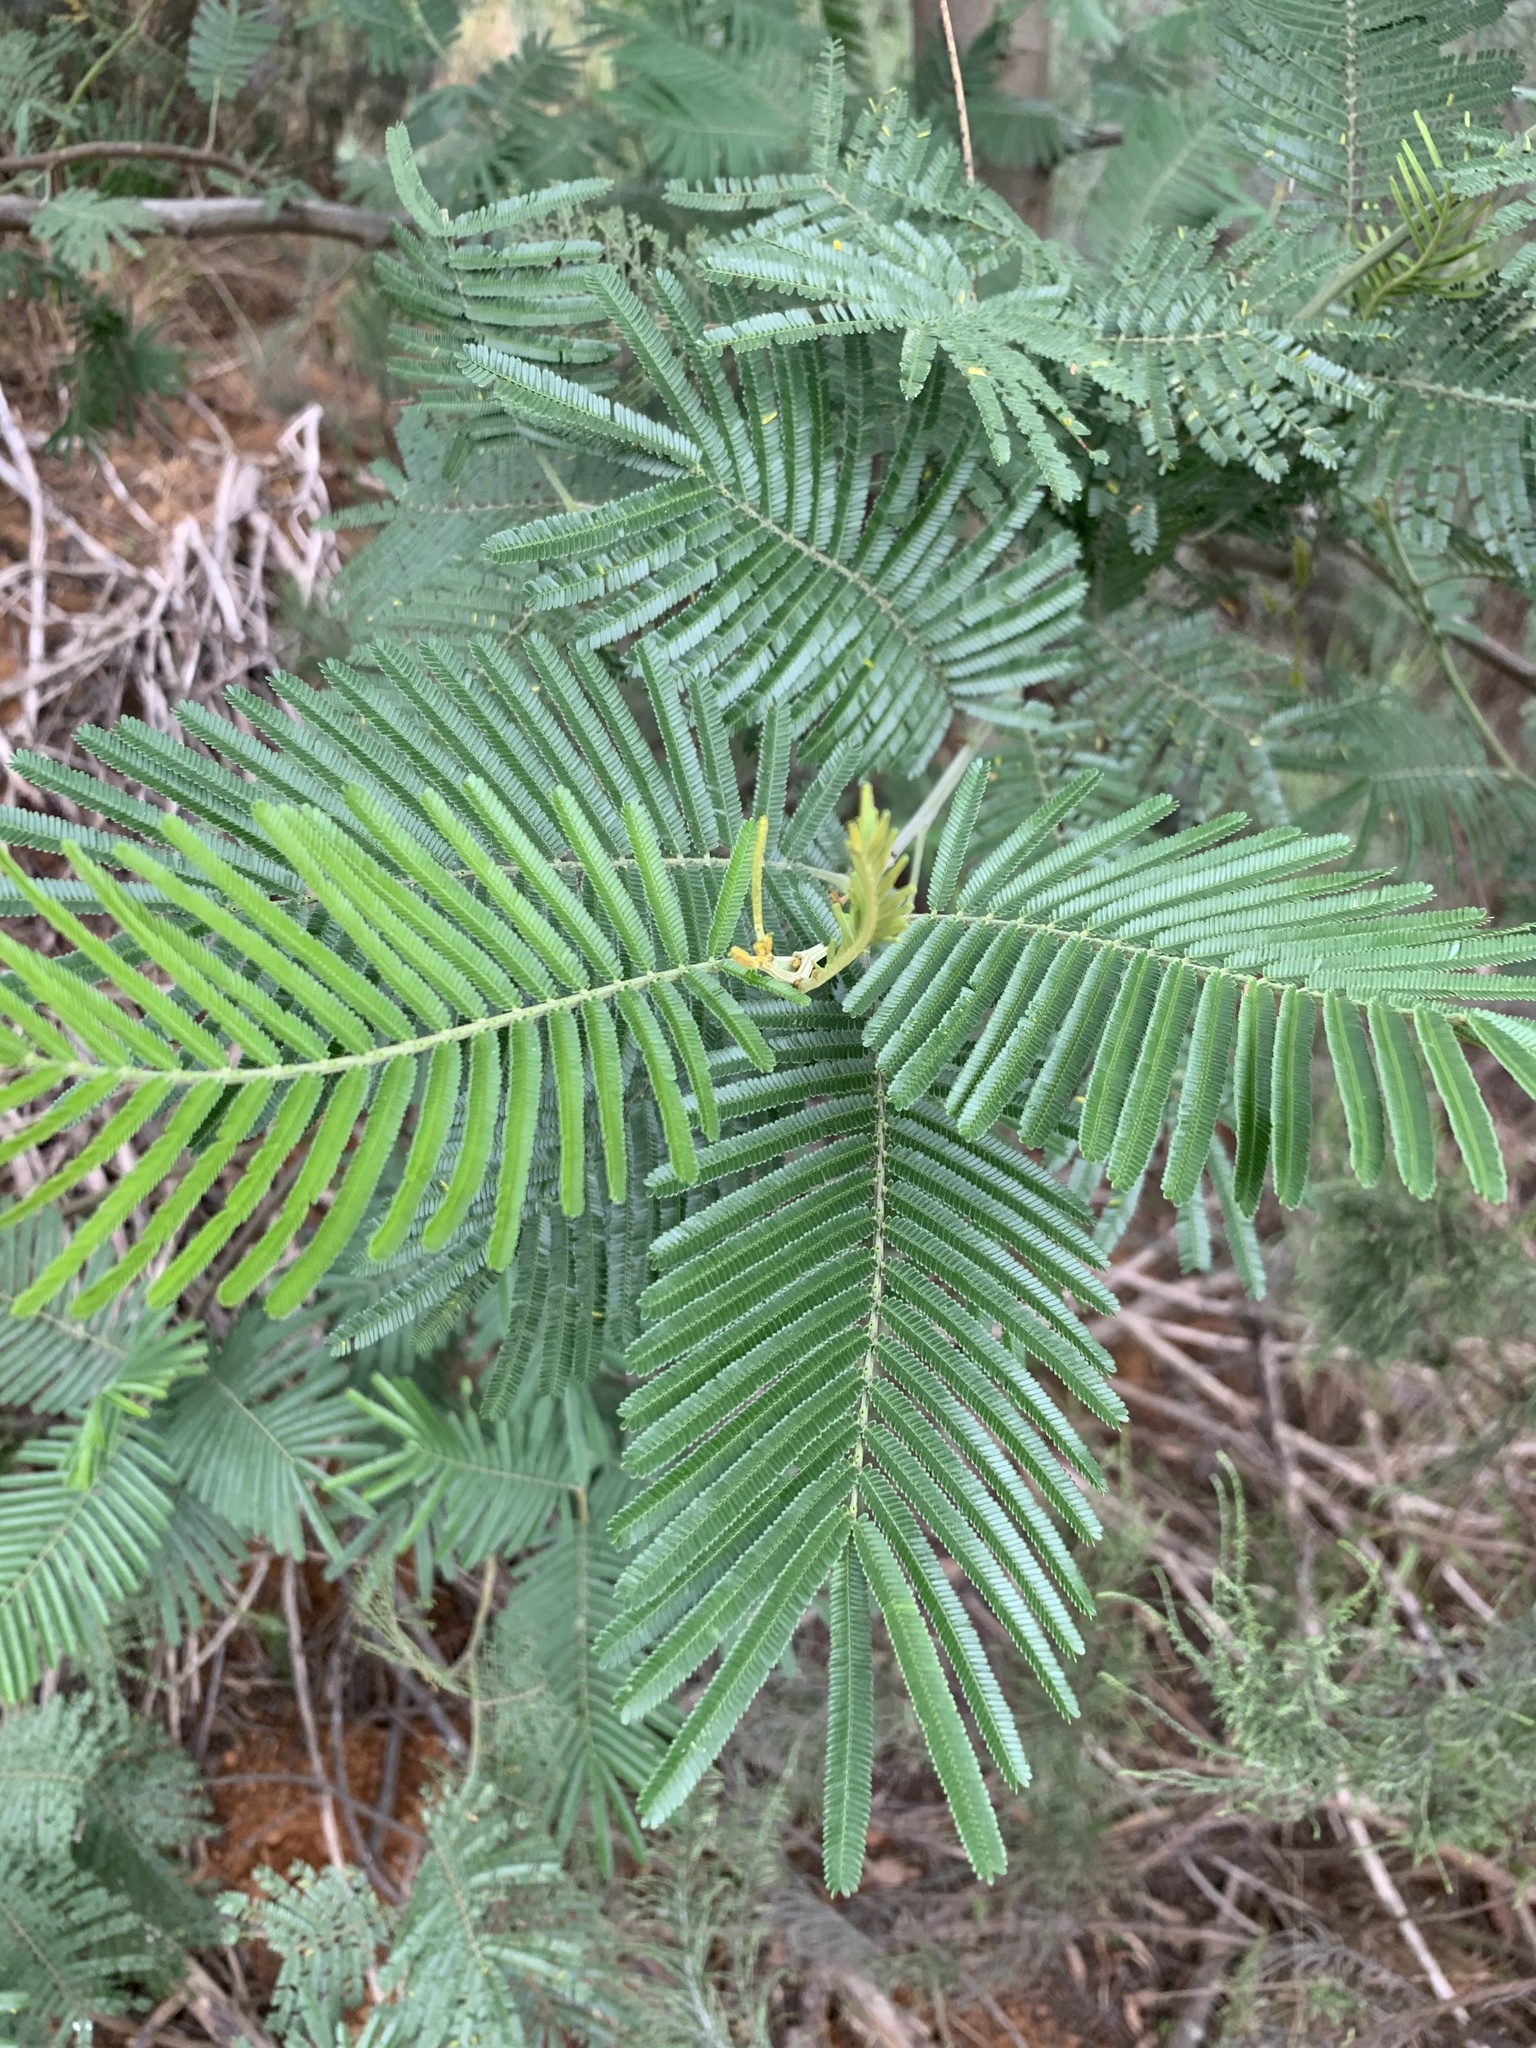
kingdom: Plantae
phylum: Tracheophyta
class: Magnoliopsida
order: Fabales
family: Fabaceae
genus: Acacia
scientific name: Acacia mearnsii
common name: Black wattle
